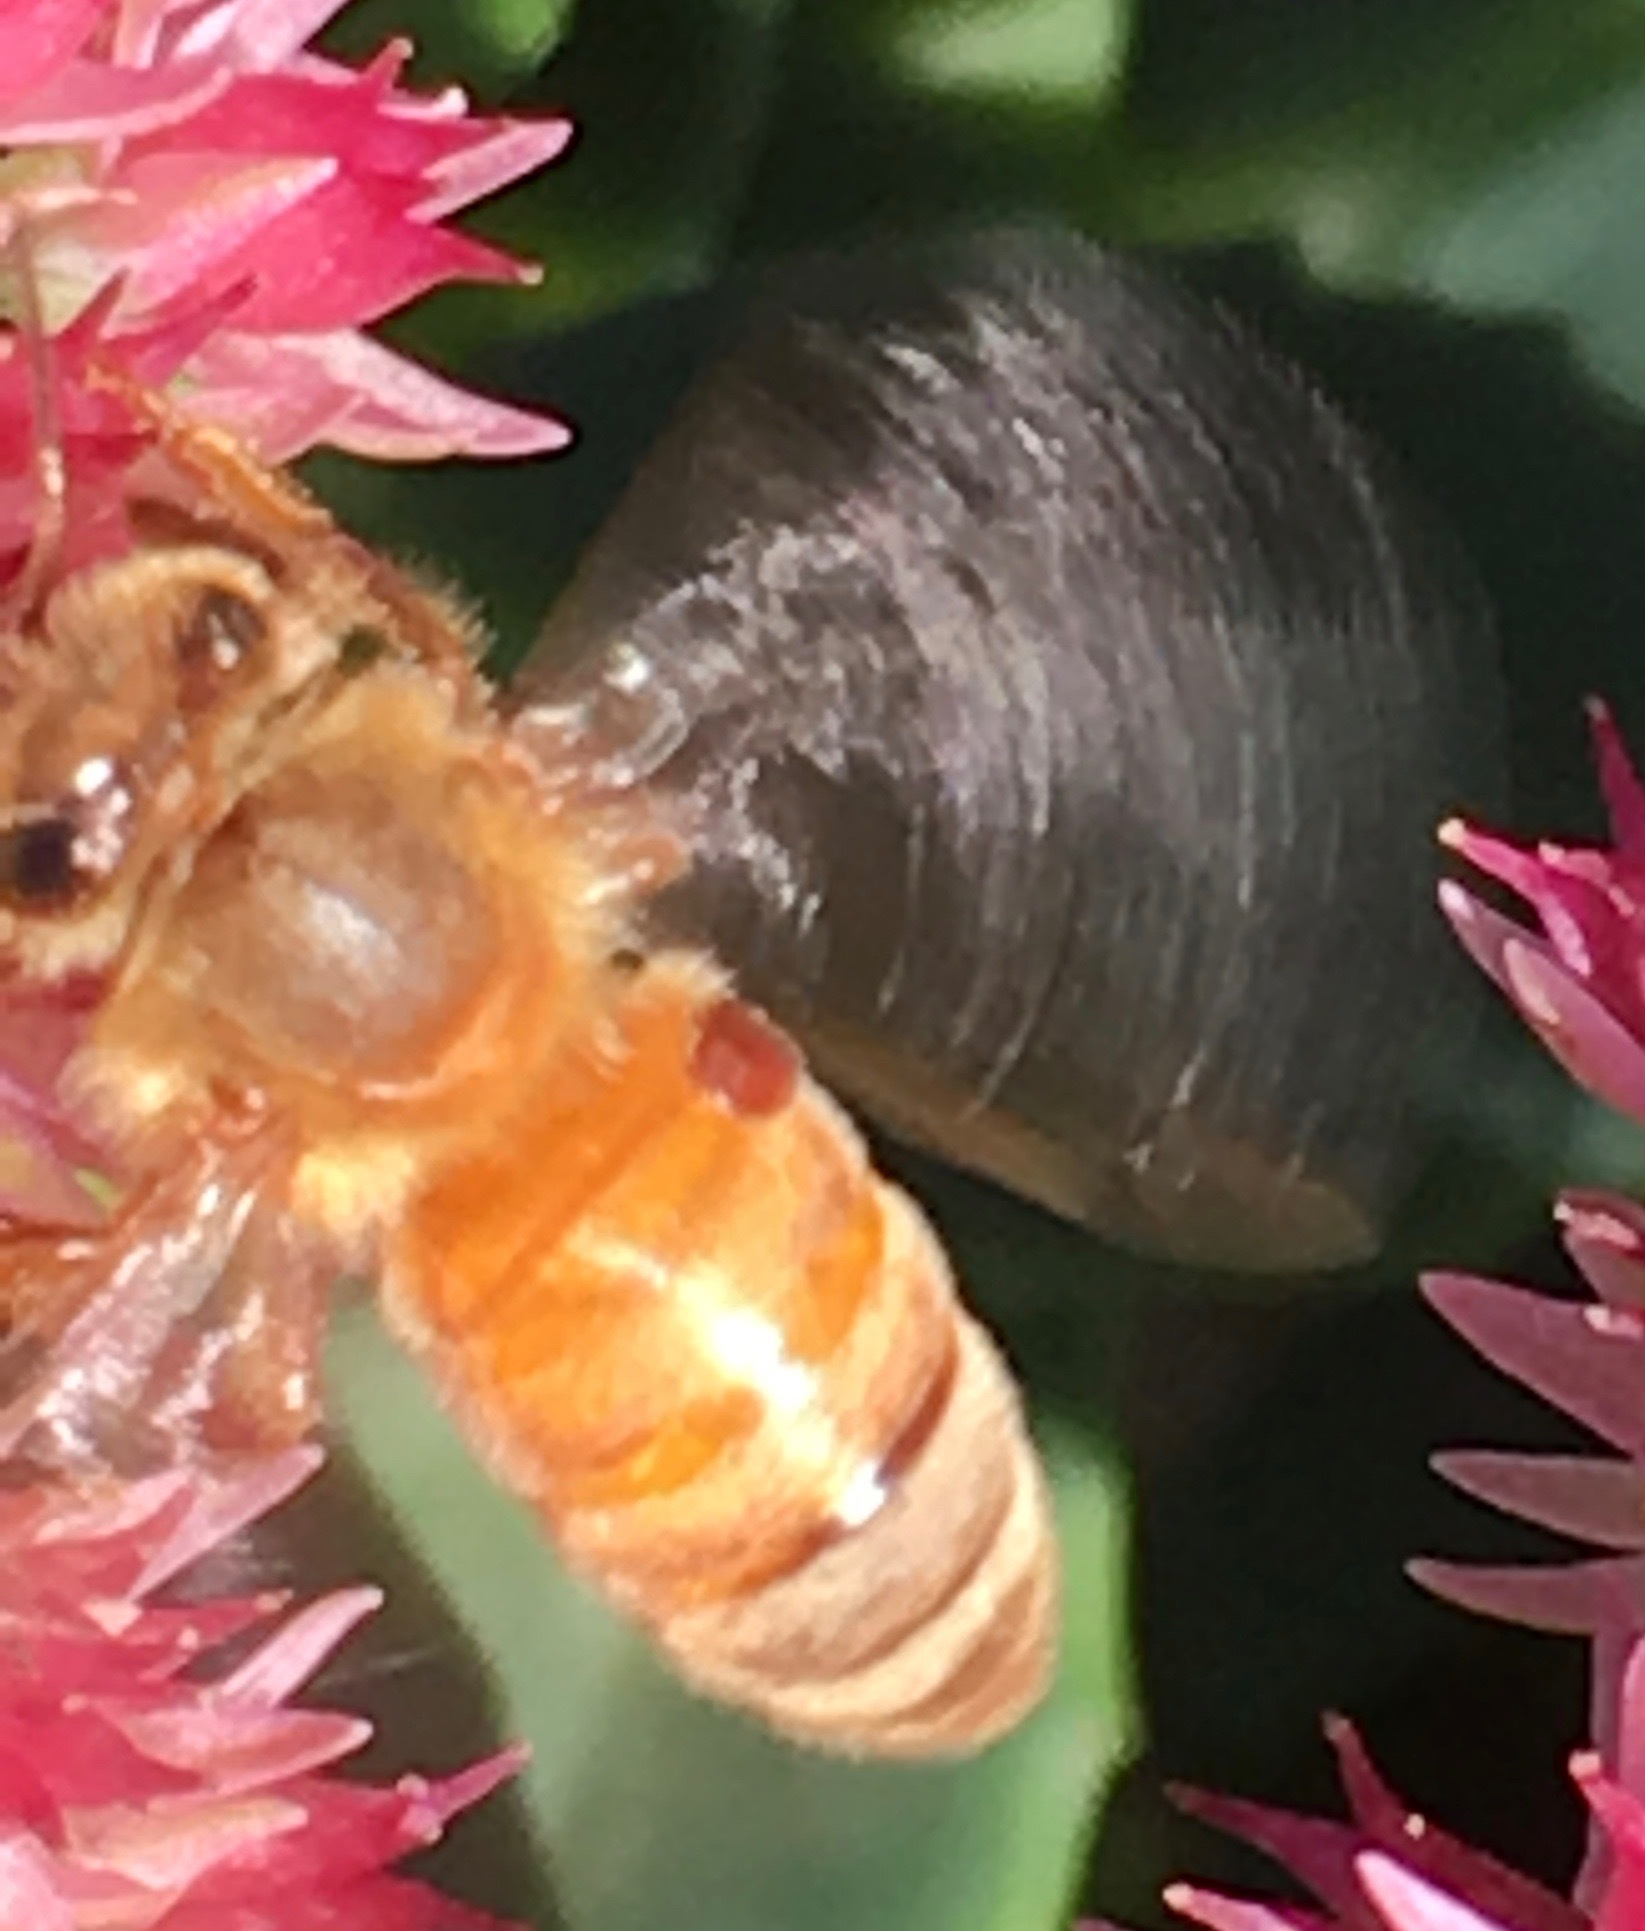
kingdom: Animalia
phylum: Arthropoda
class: Arachnida
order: Mesostigmata
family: Varroidae
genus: Varroa
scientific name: Varroa destructor
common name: Honey bee mite
